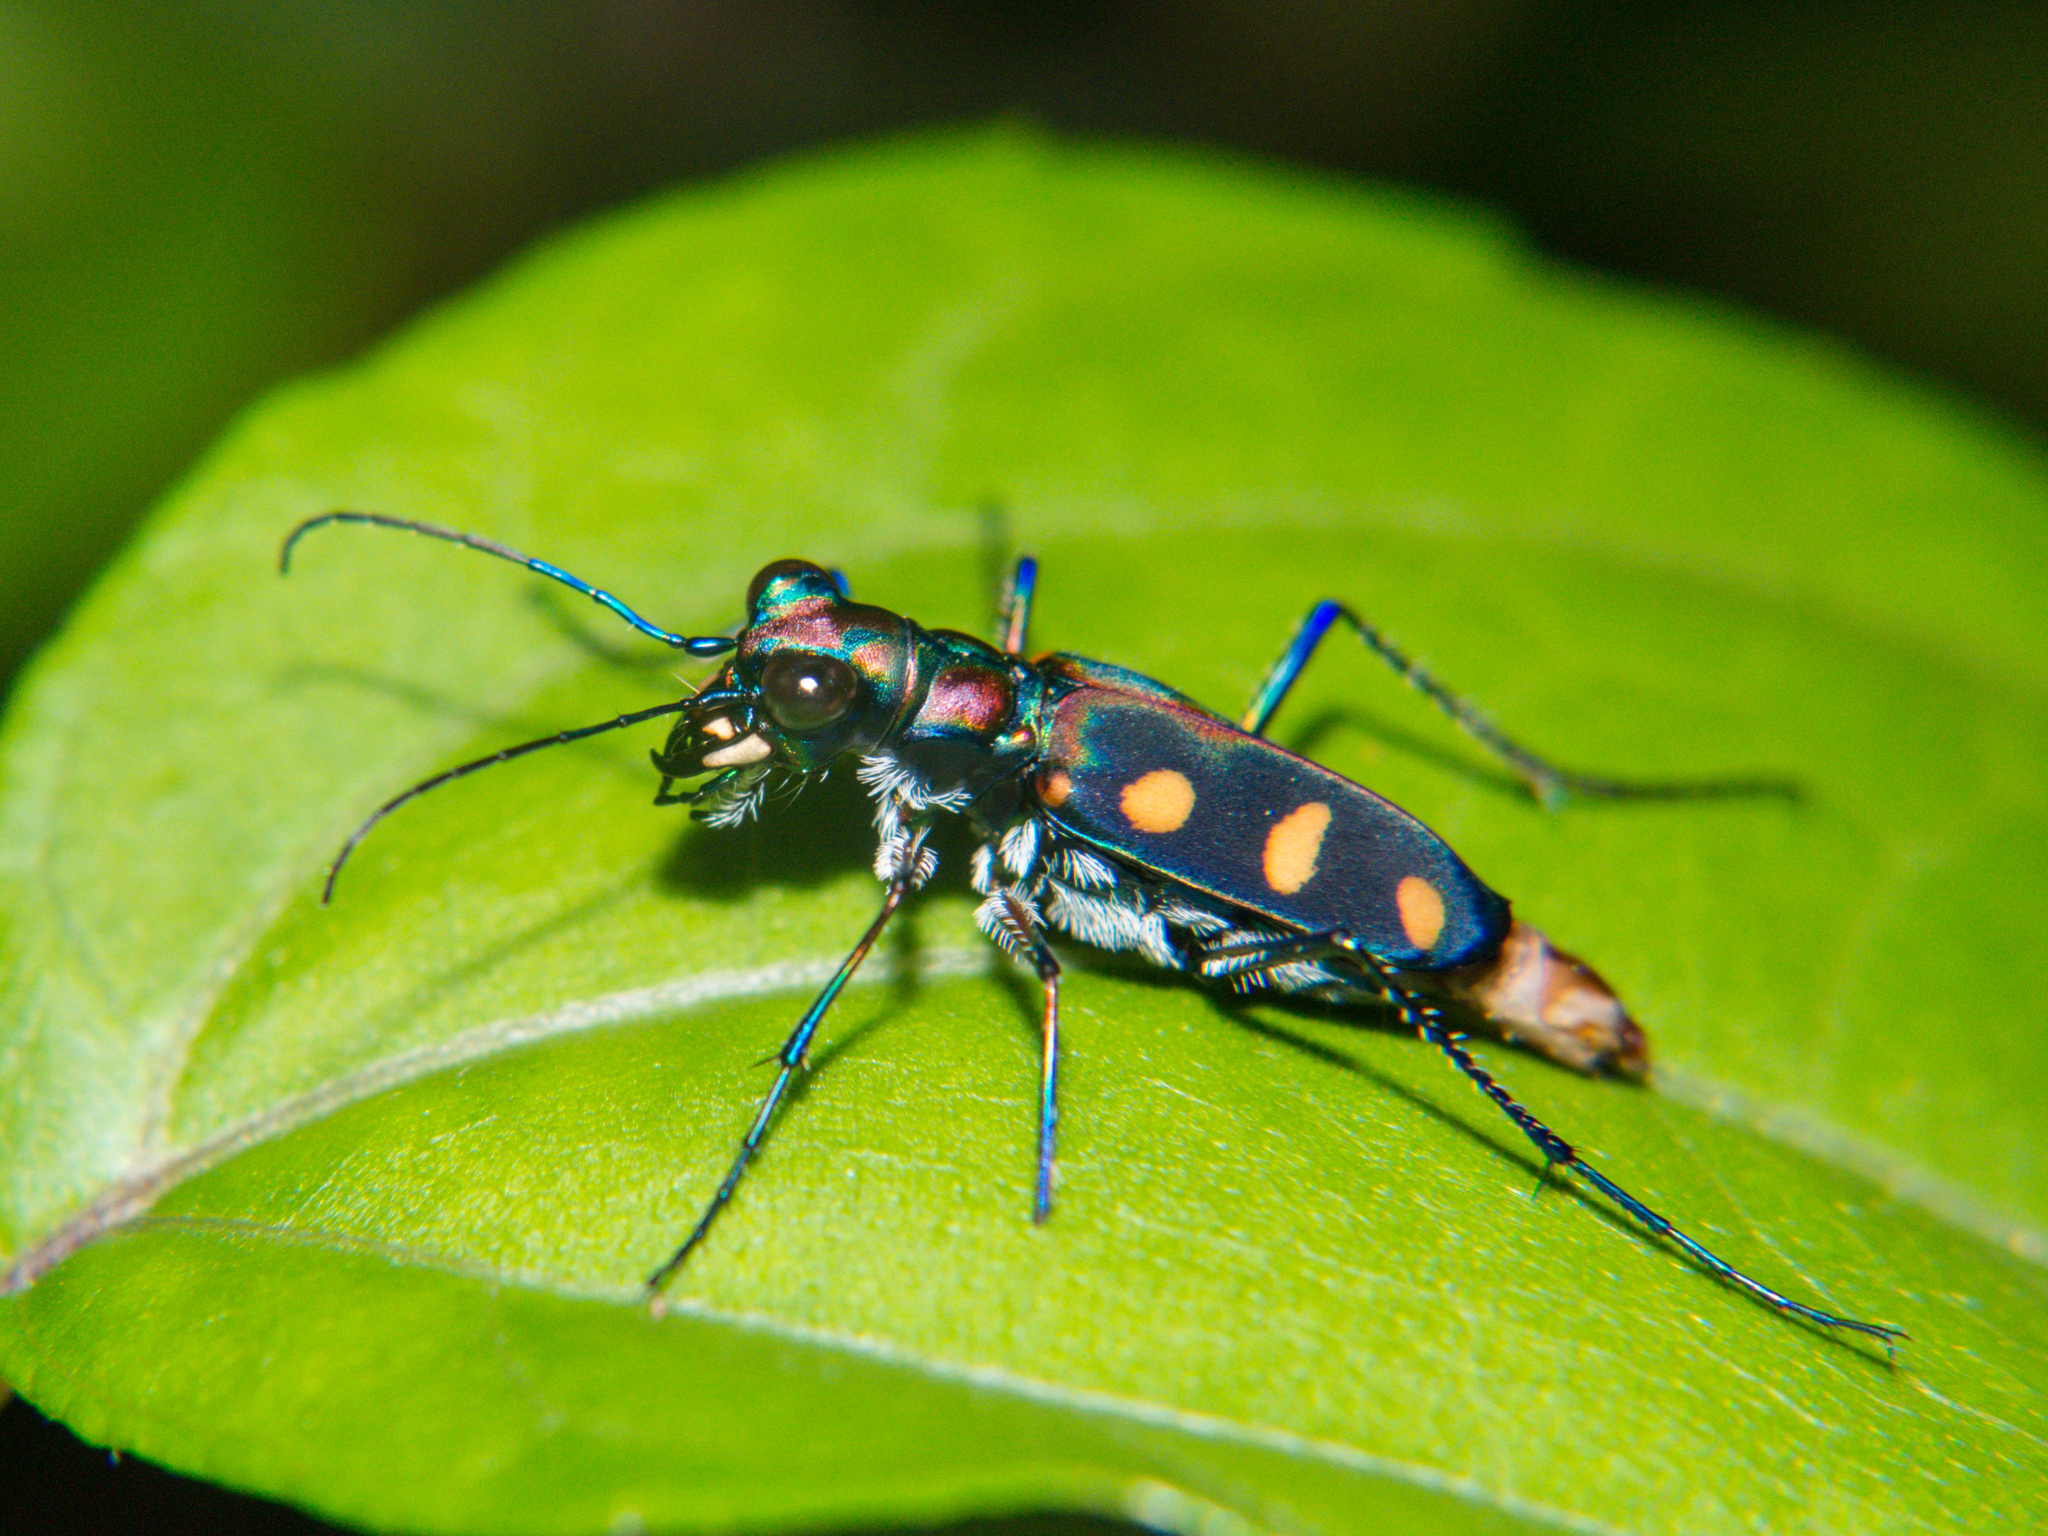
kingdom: Animalia
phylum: Arthropoda
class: Insecta
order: Coleoptera
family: Carabidae
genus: Cicindela
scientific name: Cicindela juxtata
